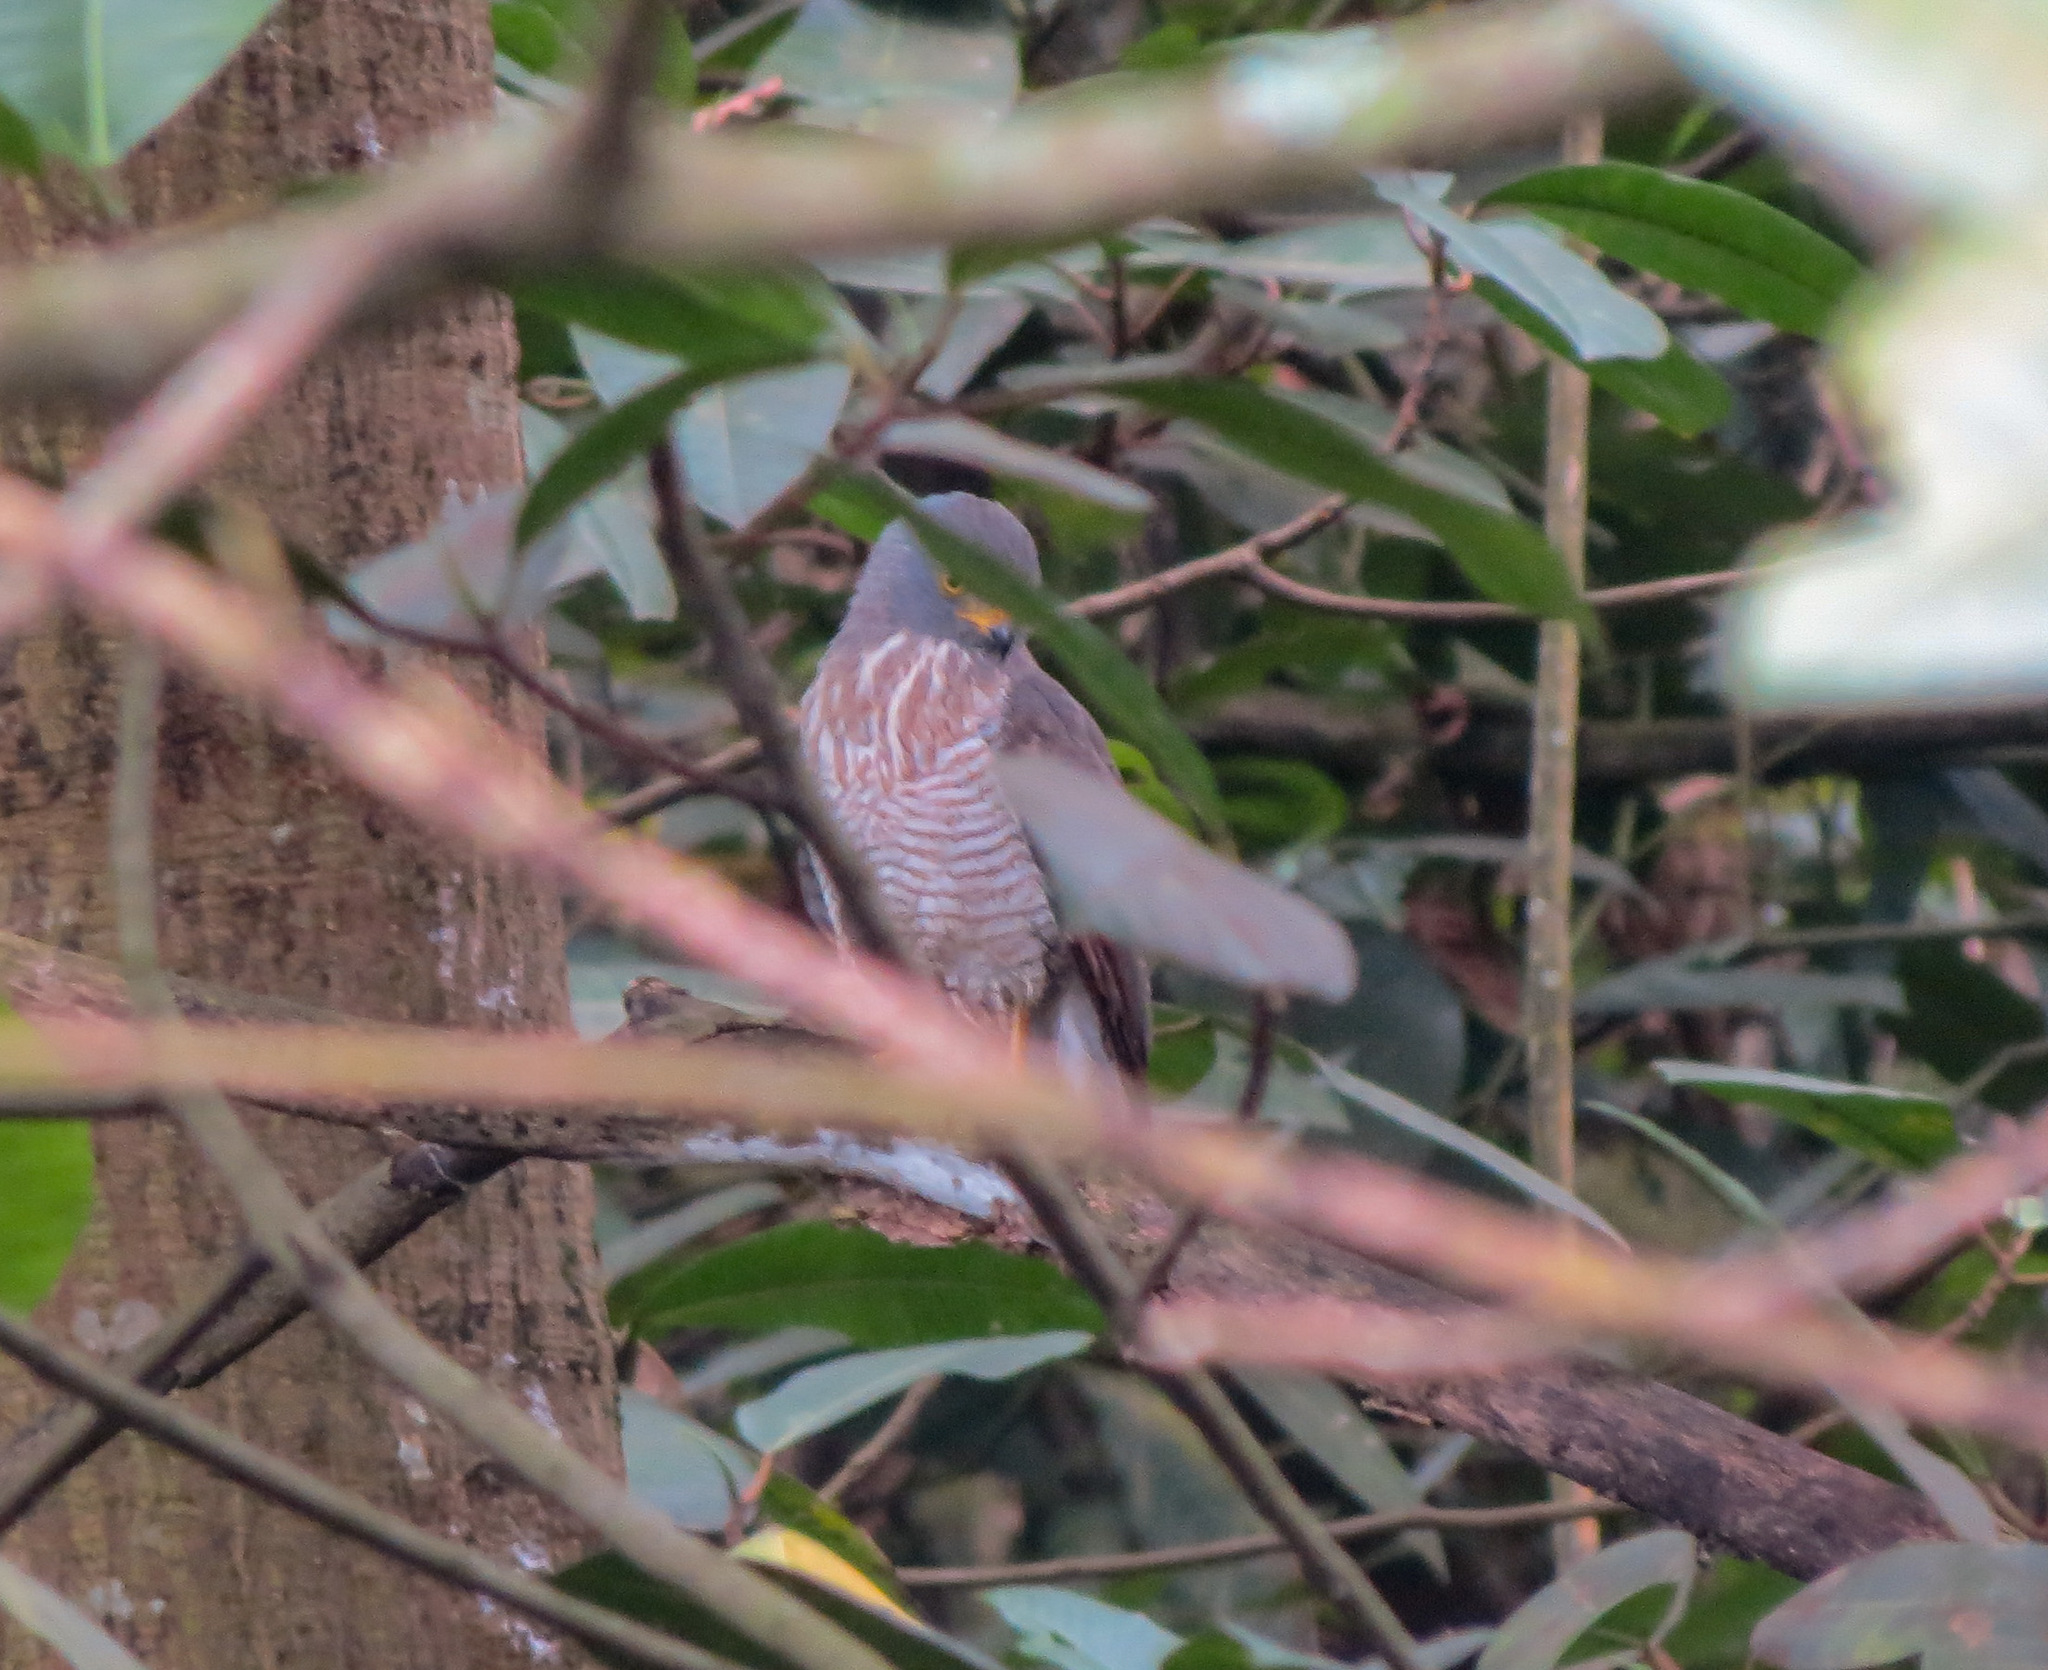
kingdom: Animalia
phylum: Chordata
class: Aves
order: Accipitriformes
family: Accipitridae
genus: Rupornis
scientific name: Rupornis magnirostris
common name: Roadside hawk
